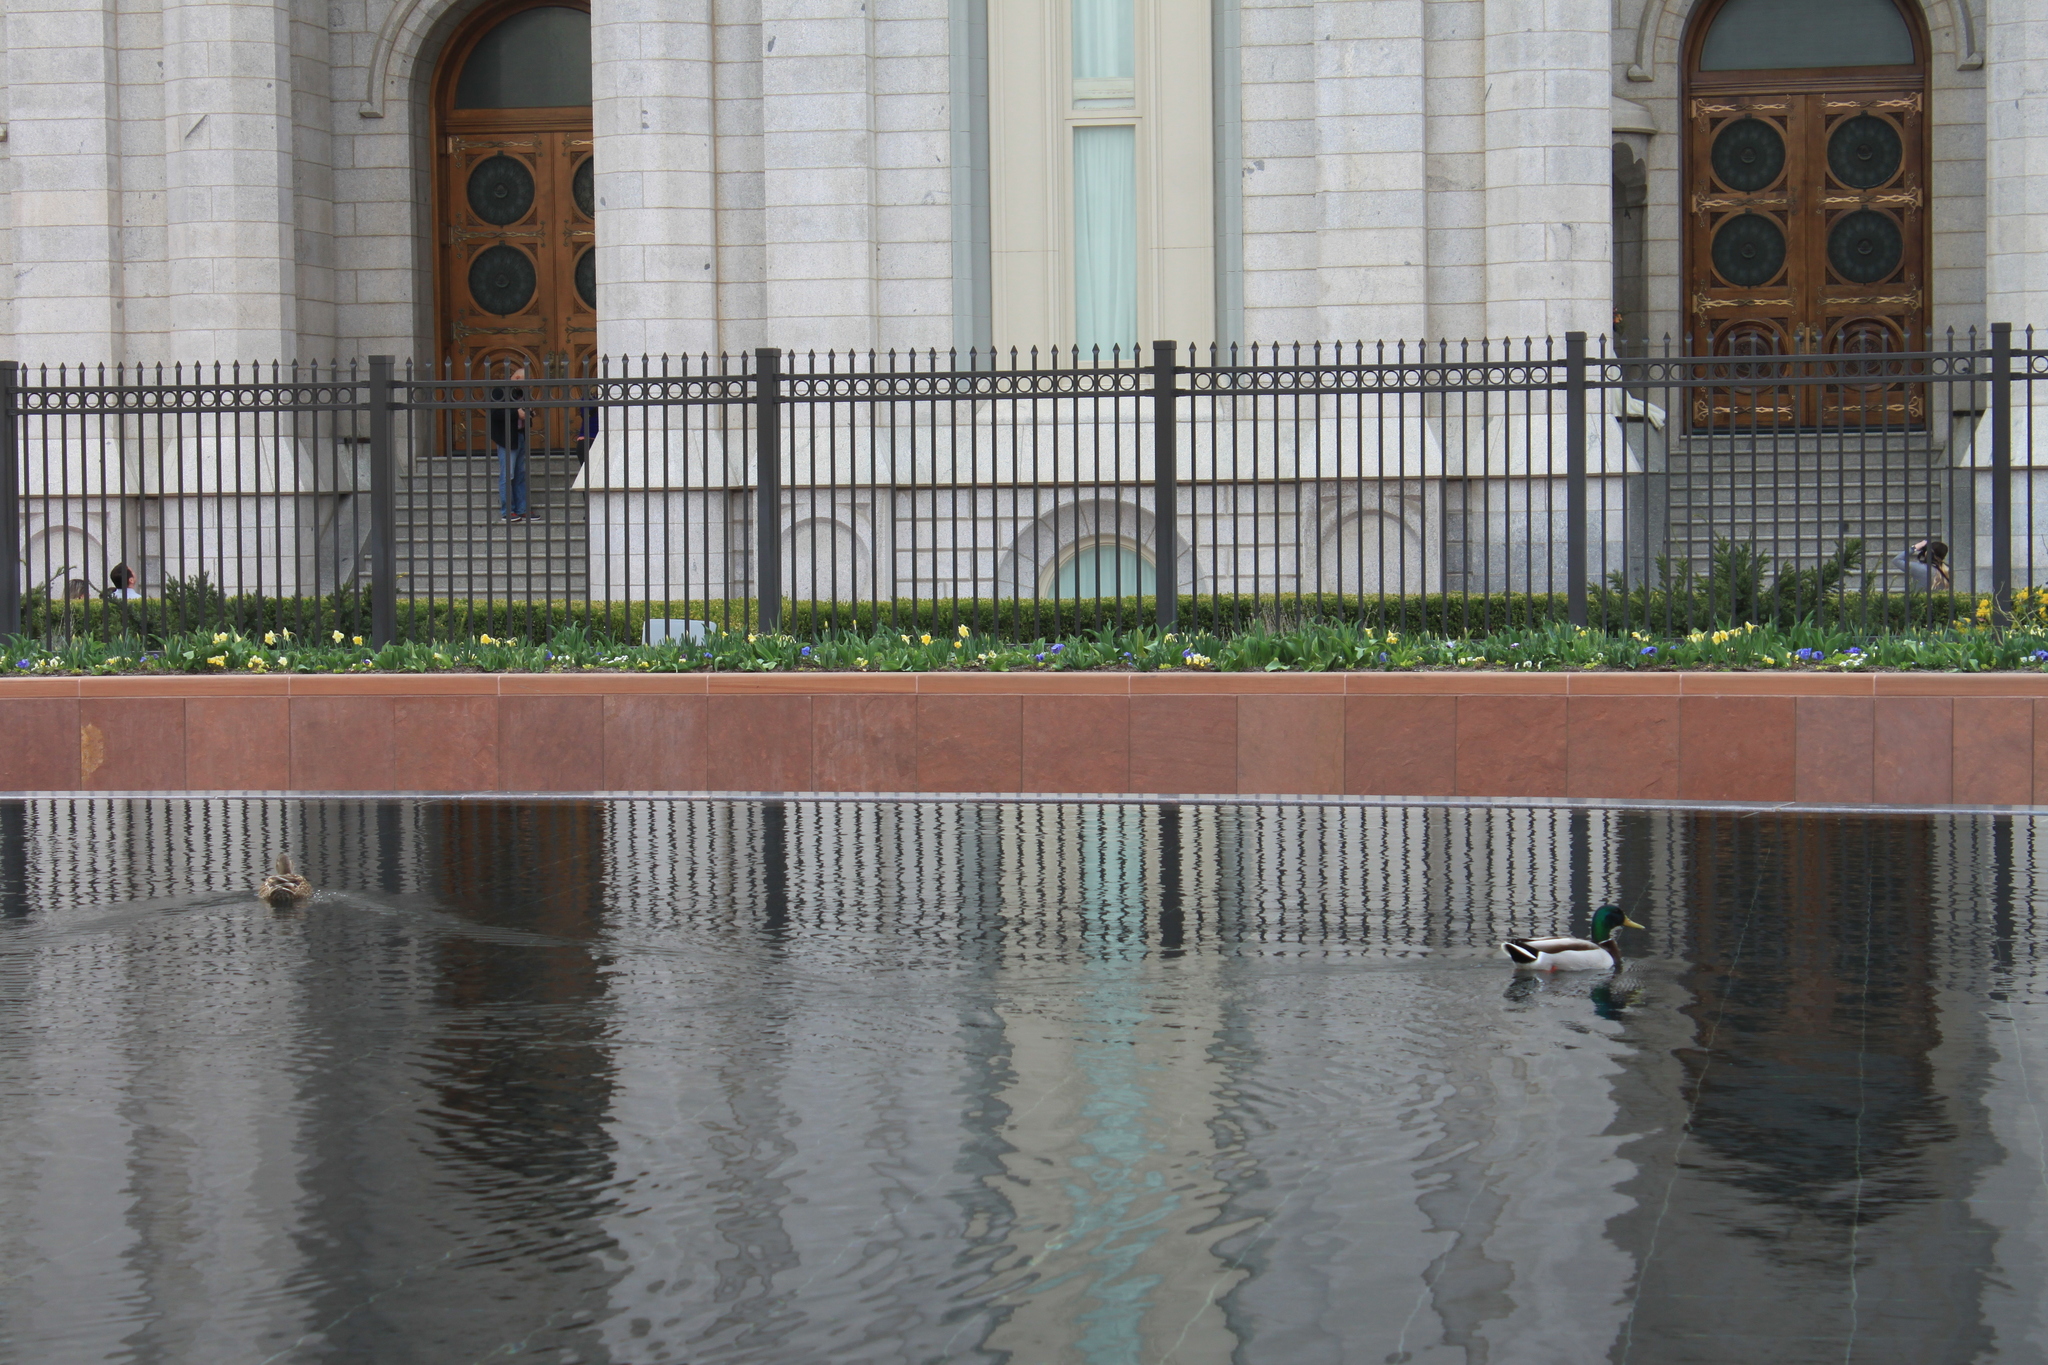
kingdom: Animalia
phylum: Chordata
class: Aves
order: Anseriformes
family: Anatidae
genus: Anas
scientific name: Anas platyrhynchos
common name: Mallard
